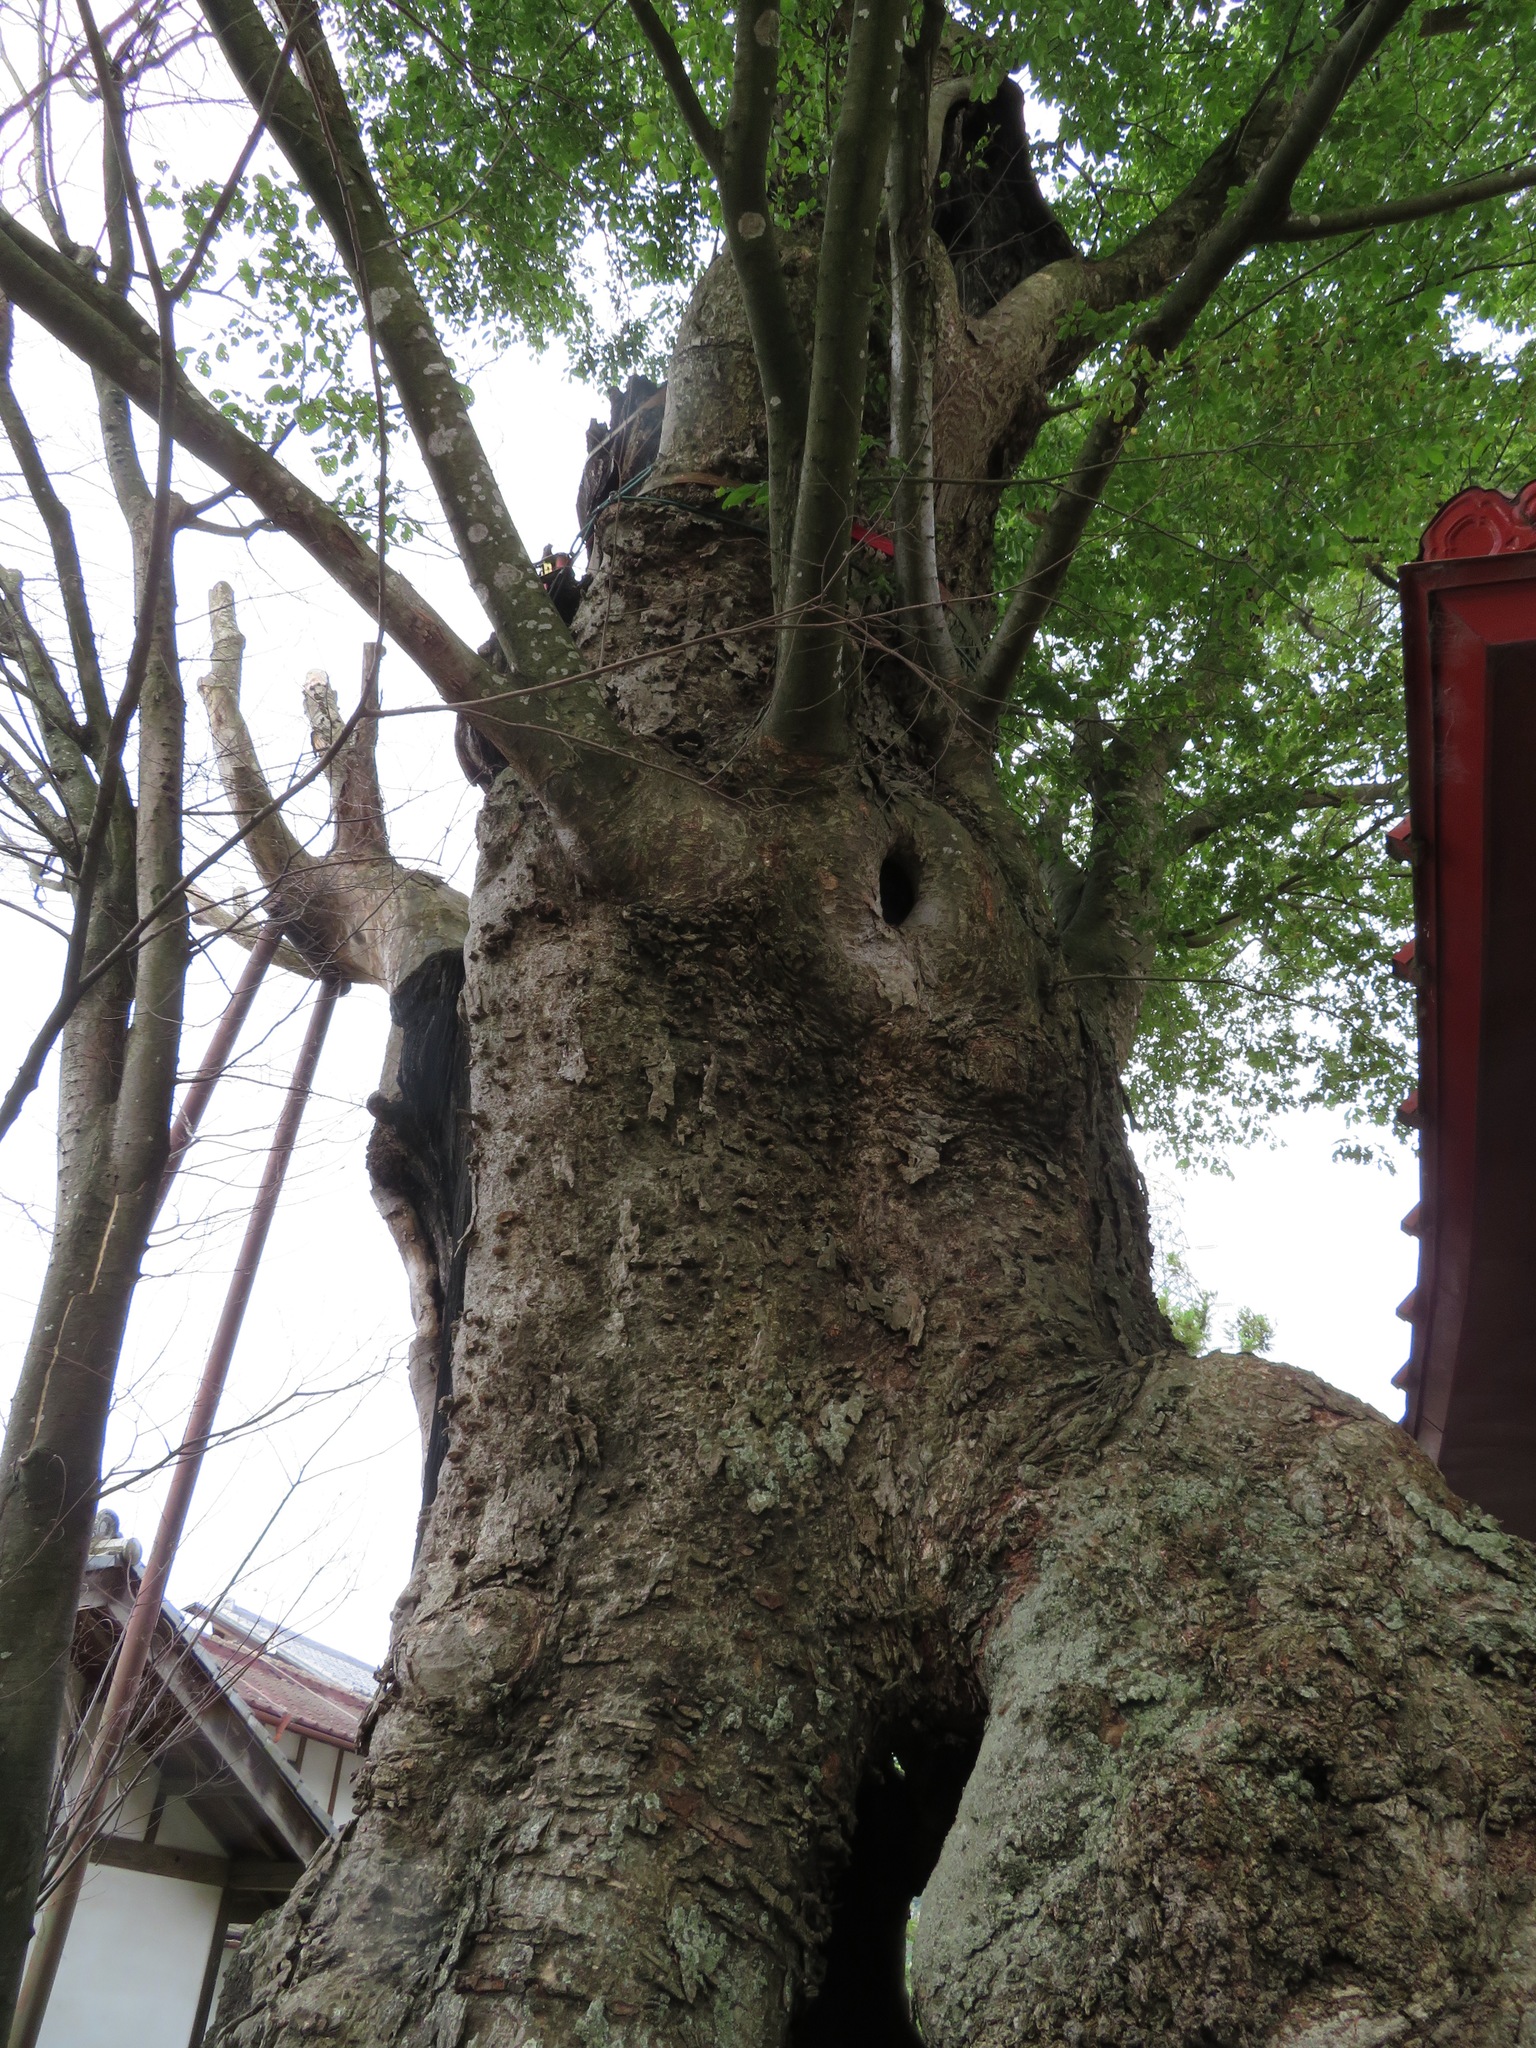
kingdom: Plantae
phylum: Tracheophyta
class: Magnoliopsida
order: Rosales
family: Ulmaceae
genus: Zelkova
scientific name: Zelkova serrata
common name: Japanese zelkova
